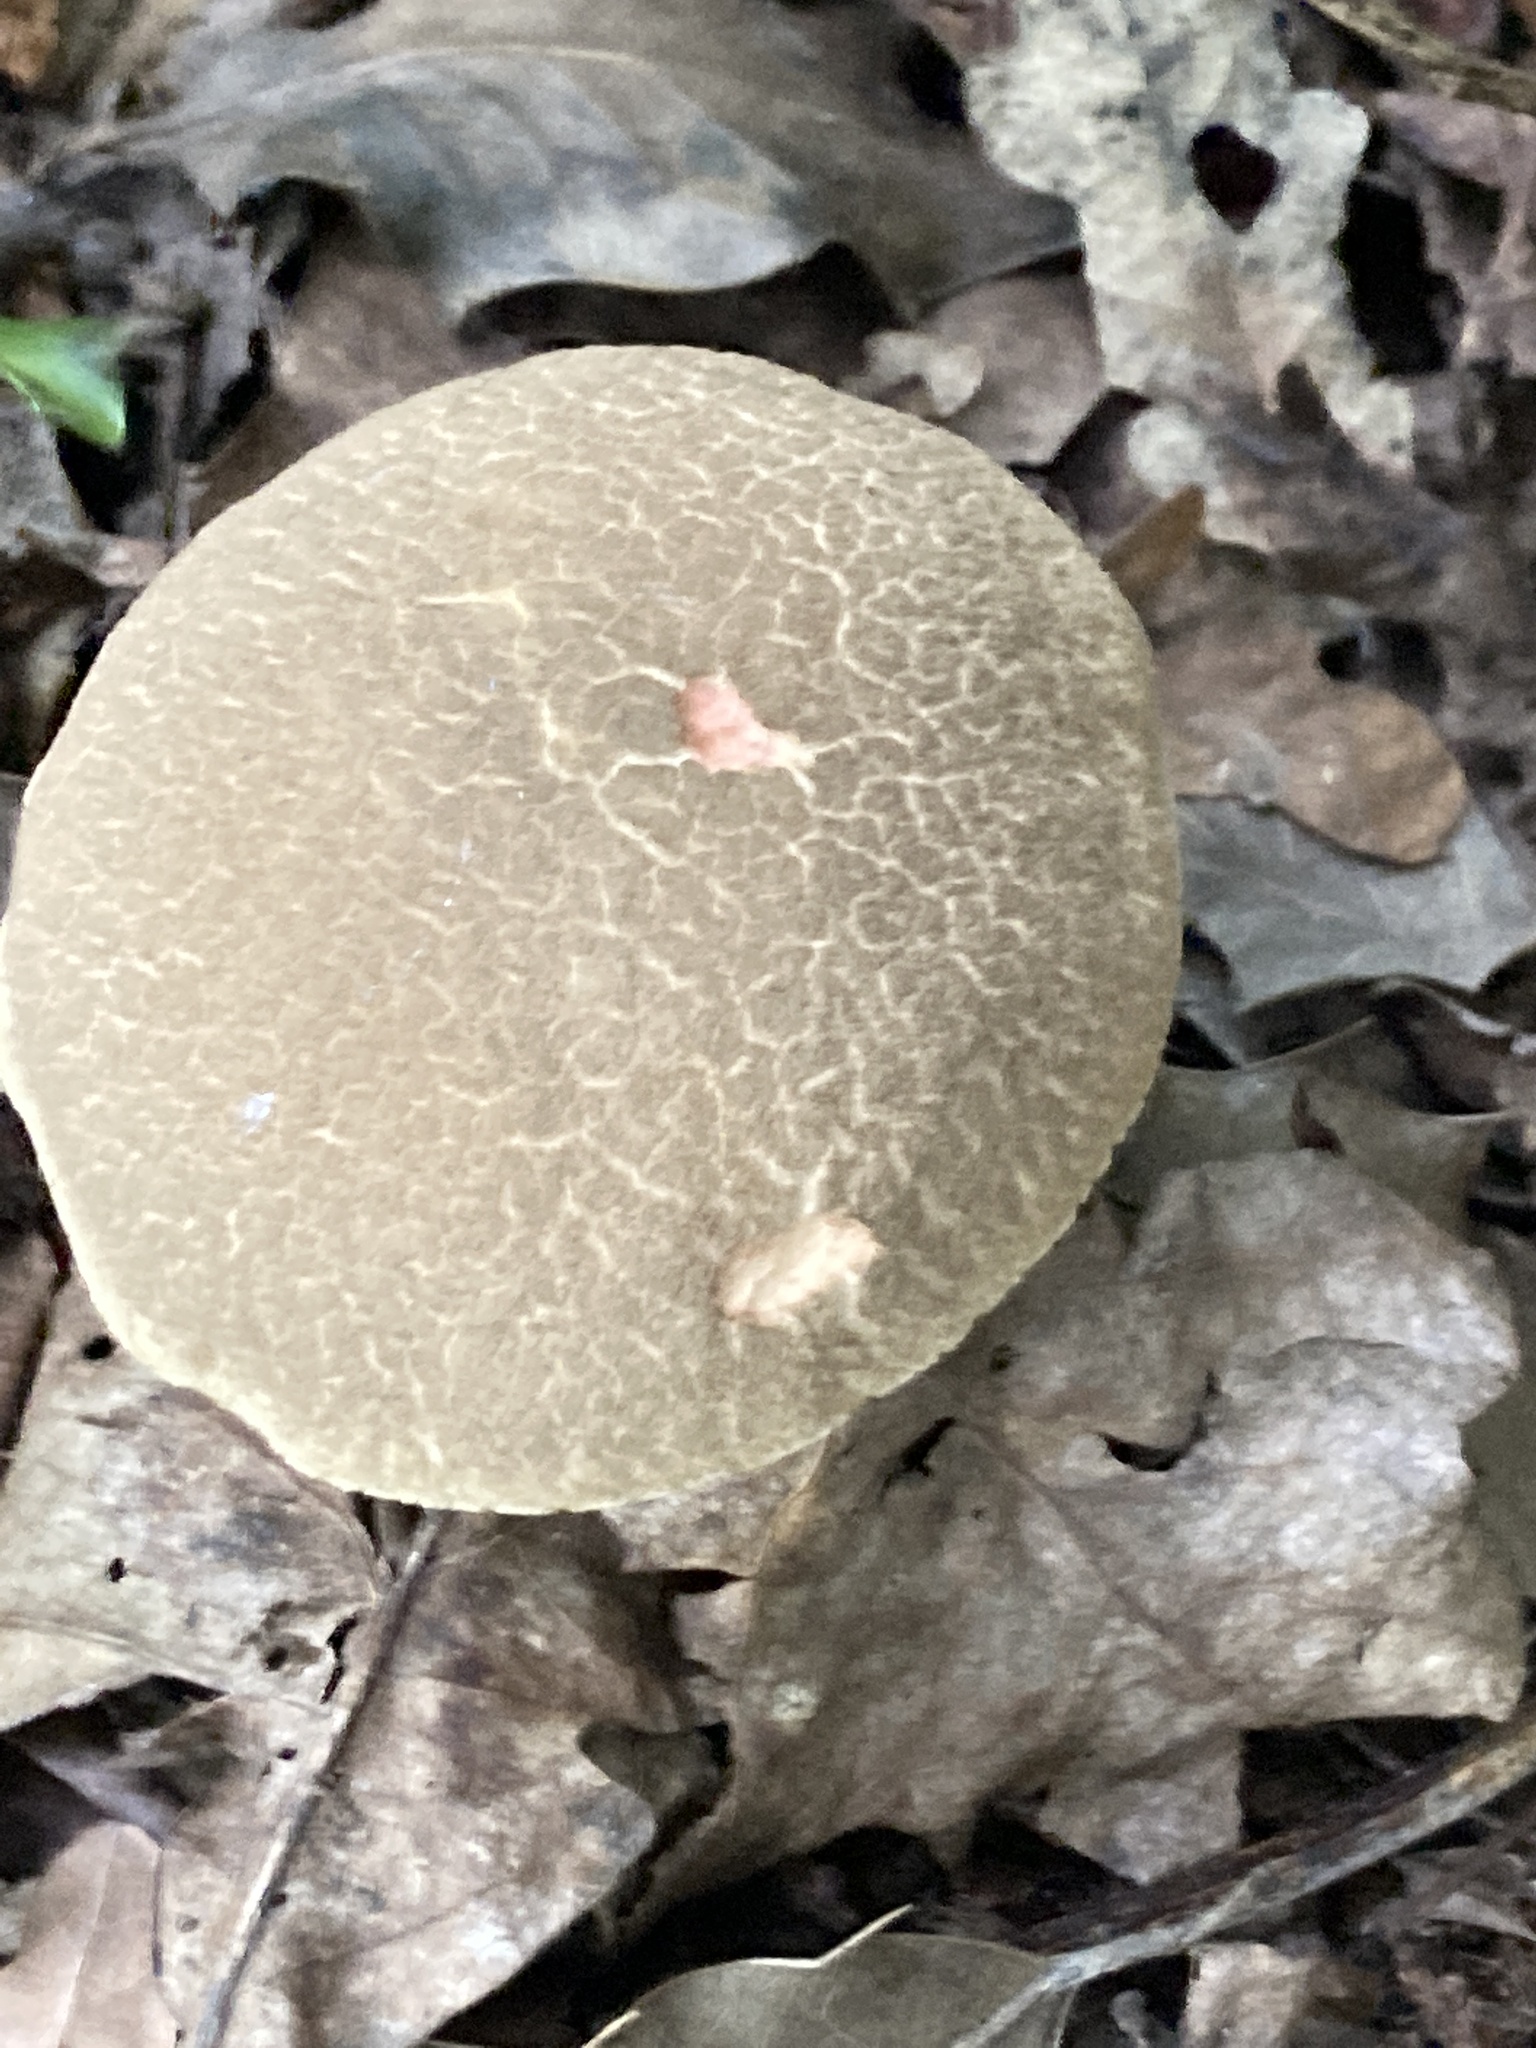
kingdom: Fungi
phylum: Basidiomycota
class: Agaricomycetes
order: Boletales
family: Boletaceae
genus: Xerocomellus
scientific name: Xerocomellus chrysenteron
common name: Red-cracking bolete
